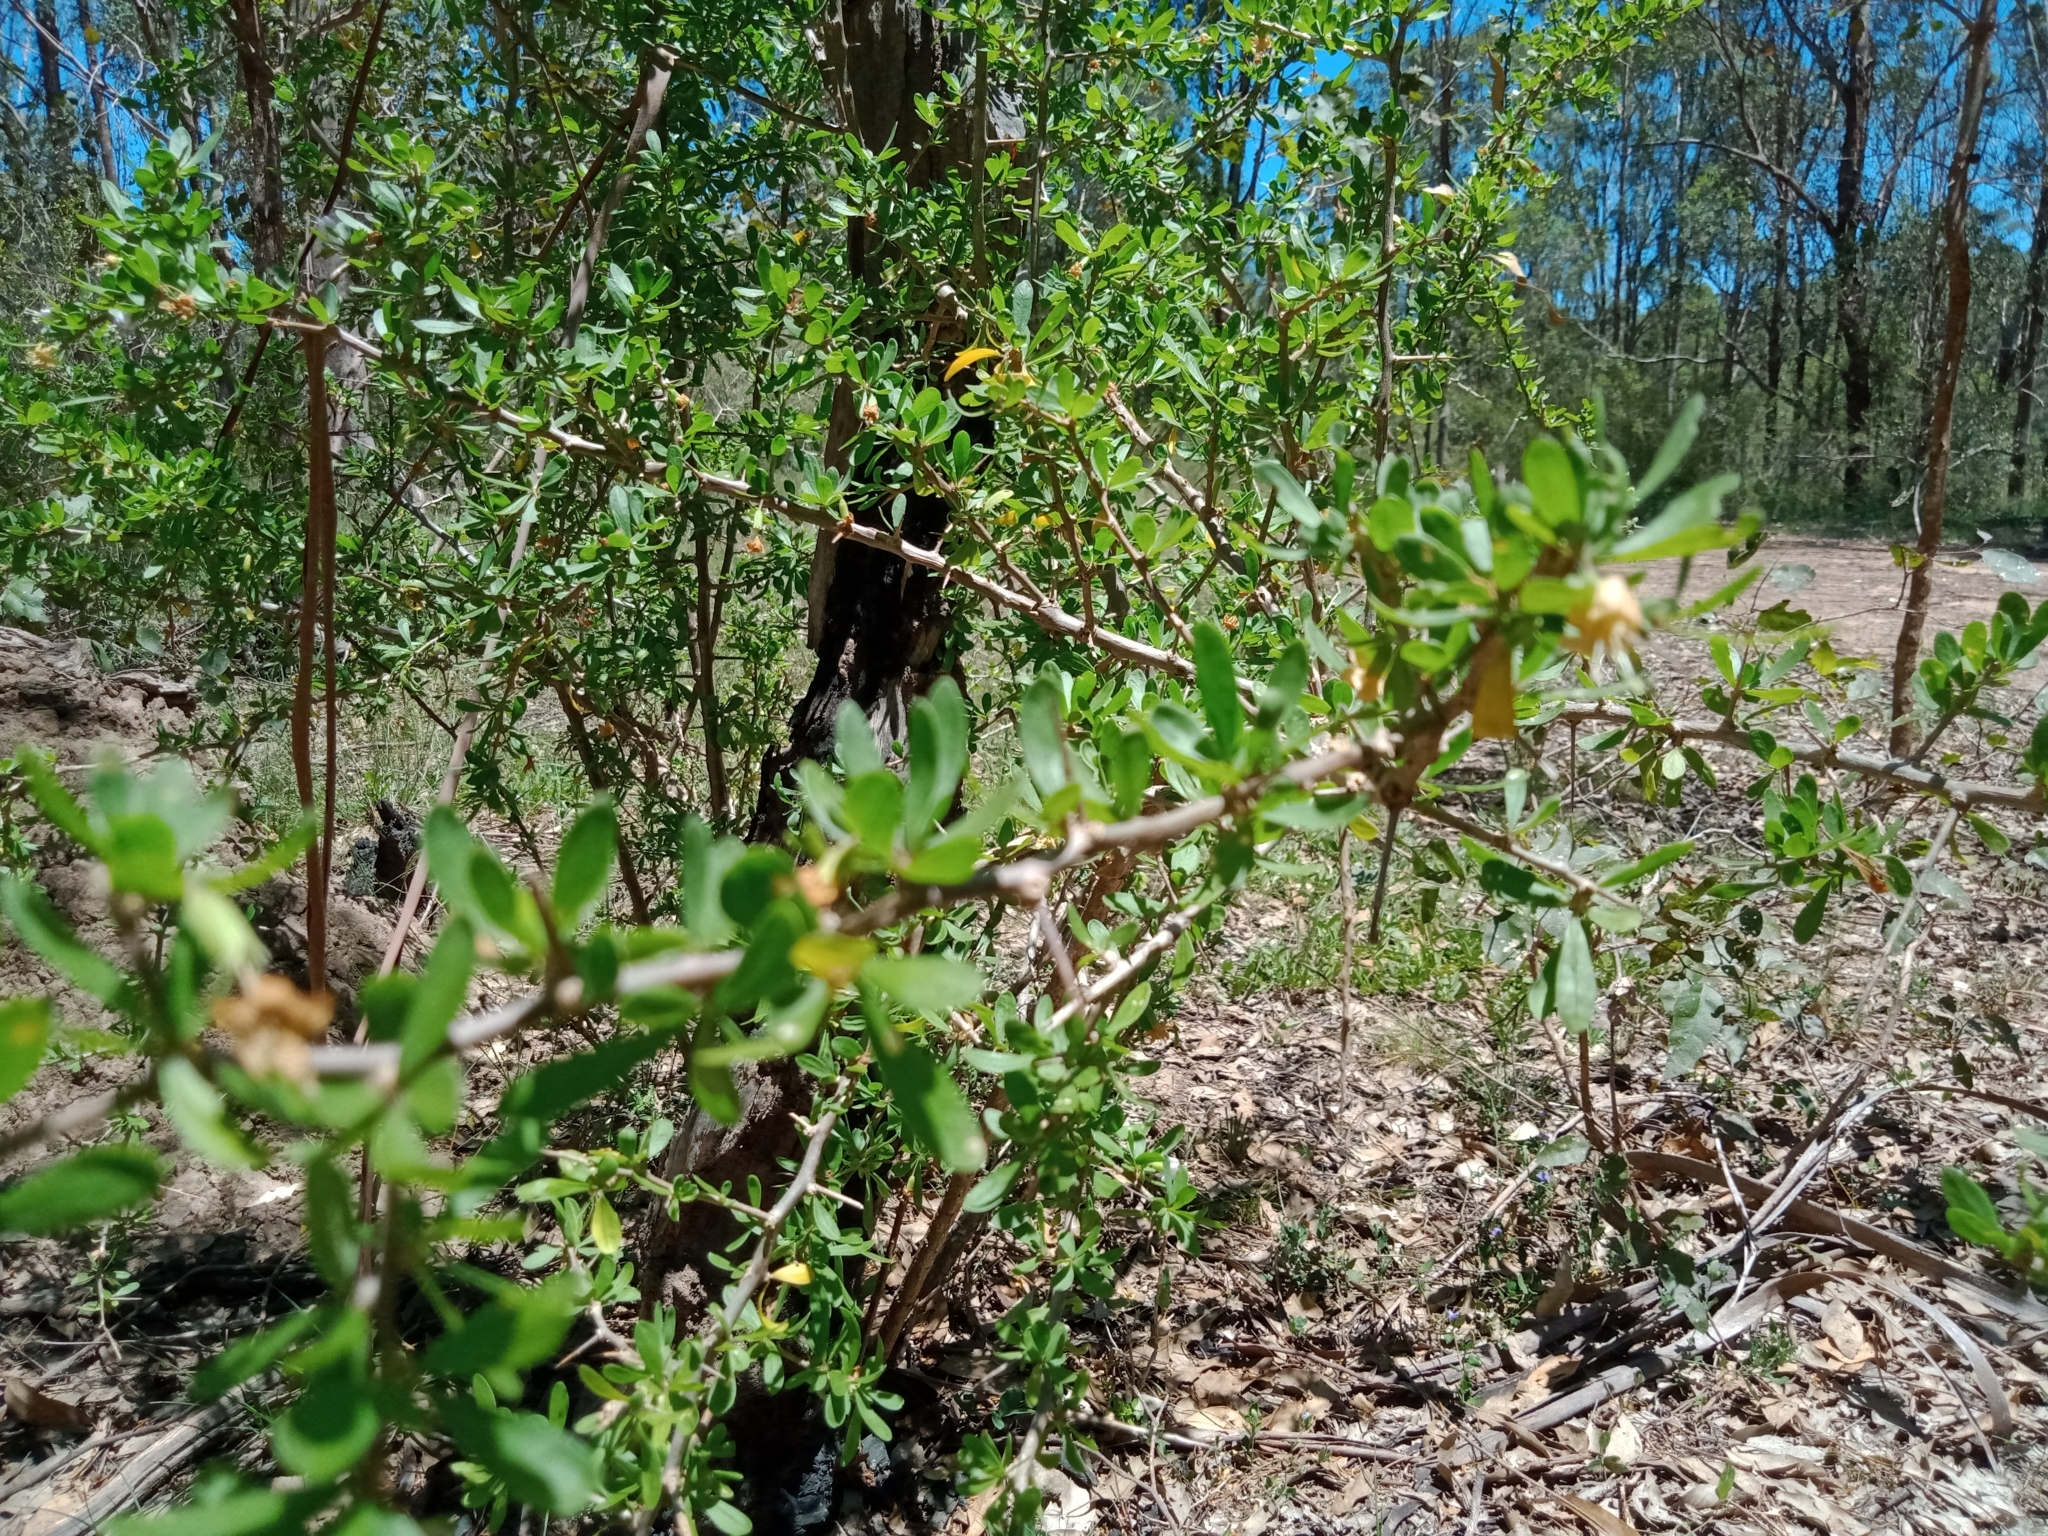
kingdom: Plantae
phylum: Tracheophyta
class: Magnoliopsida
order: Solanales
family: Solanaceae
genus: Lycium
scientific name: Lycium ferocissimum
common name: African boxthorn
